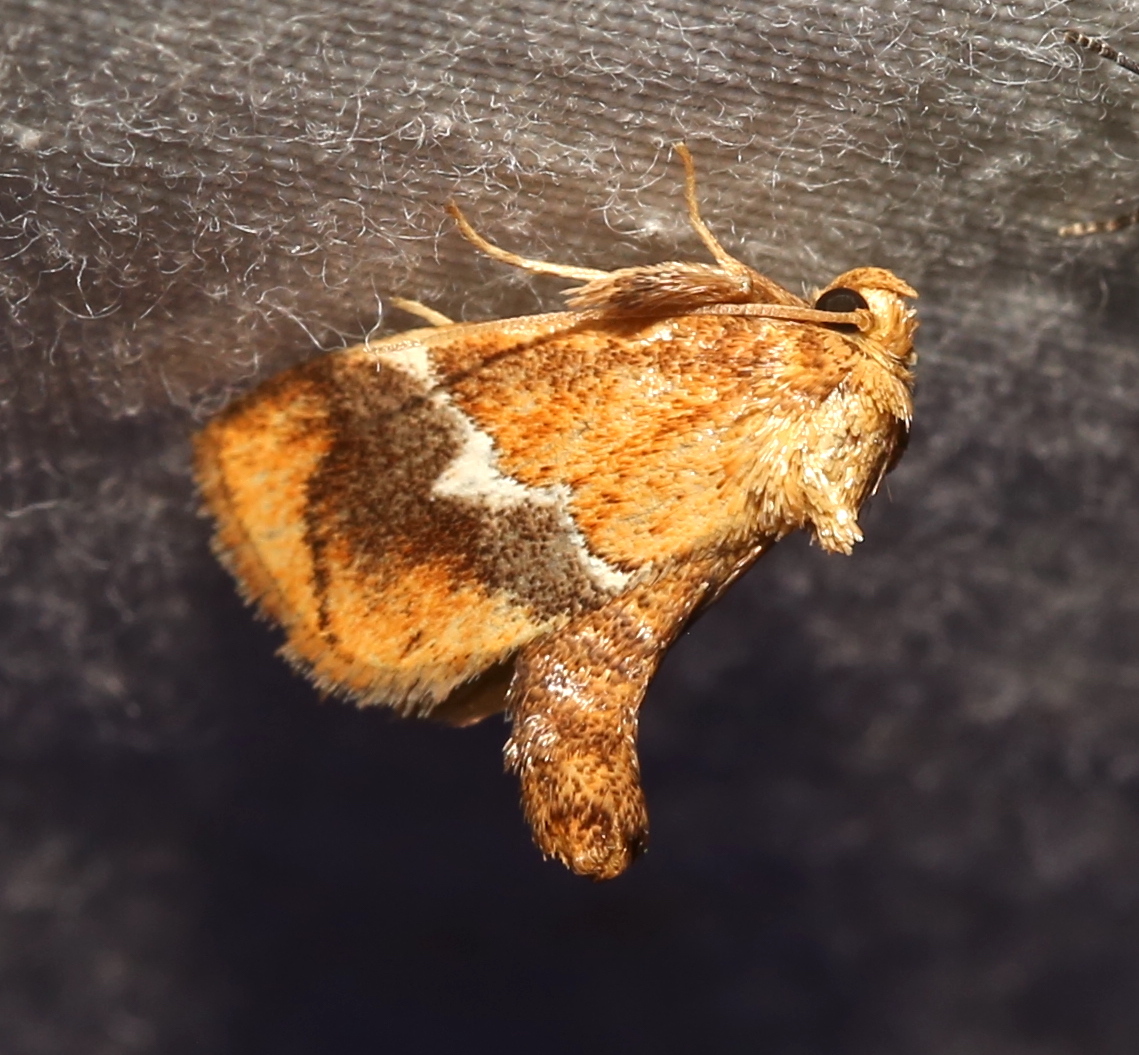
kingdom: Animalia
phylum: Arthropoda
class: Insecta
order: Lepidoptera
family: Limacodidae
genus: Lithacodes
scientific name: Lithacodes fasciola
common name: Yellow-shouldered slug moth
